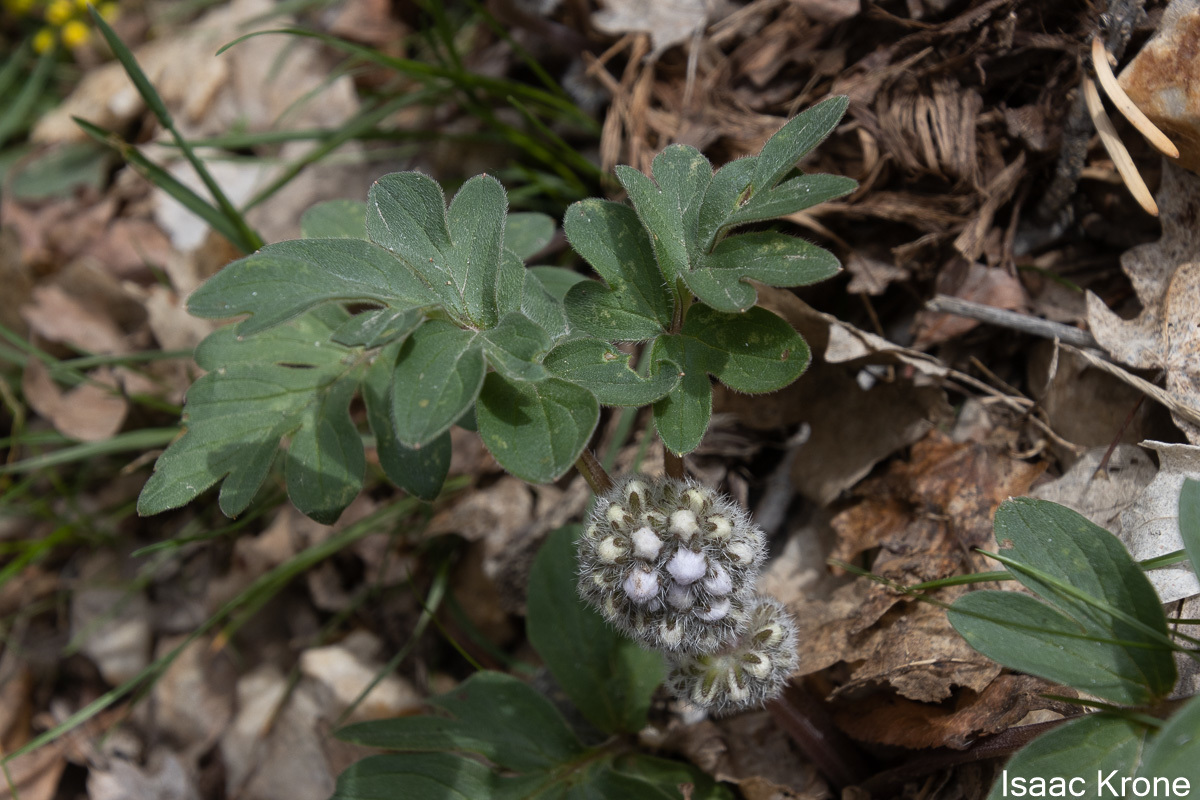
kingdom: Plantae
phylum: Tracheophyta
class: Magnoliopsida
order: Boraginales
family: Hydrophyllaceae
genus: Hydrophyllum
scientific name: Hydrophyllum capitatum
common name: Woollen-breeches
